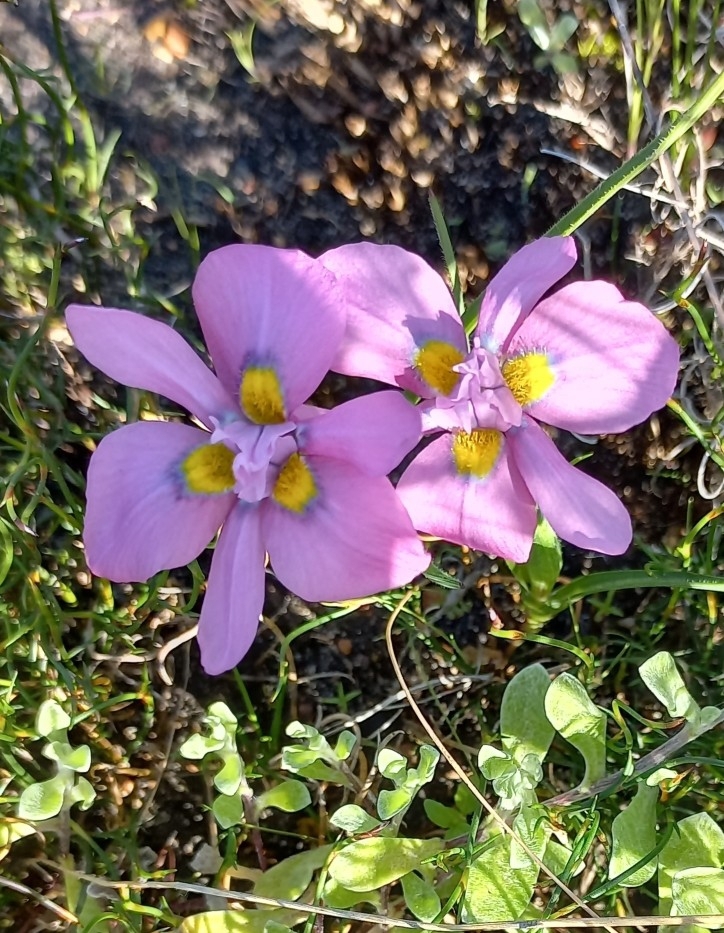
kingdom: Plantae
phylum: Tracheophyta
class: Liliopsida
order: Asparagales
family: Iridaceae
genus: Moraea
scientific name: Moraea tricolor
